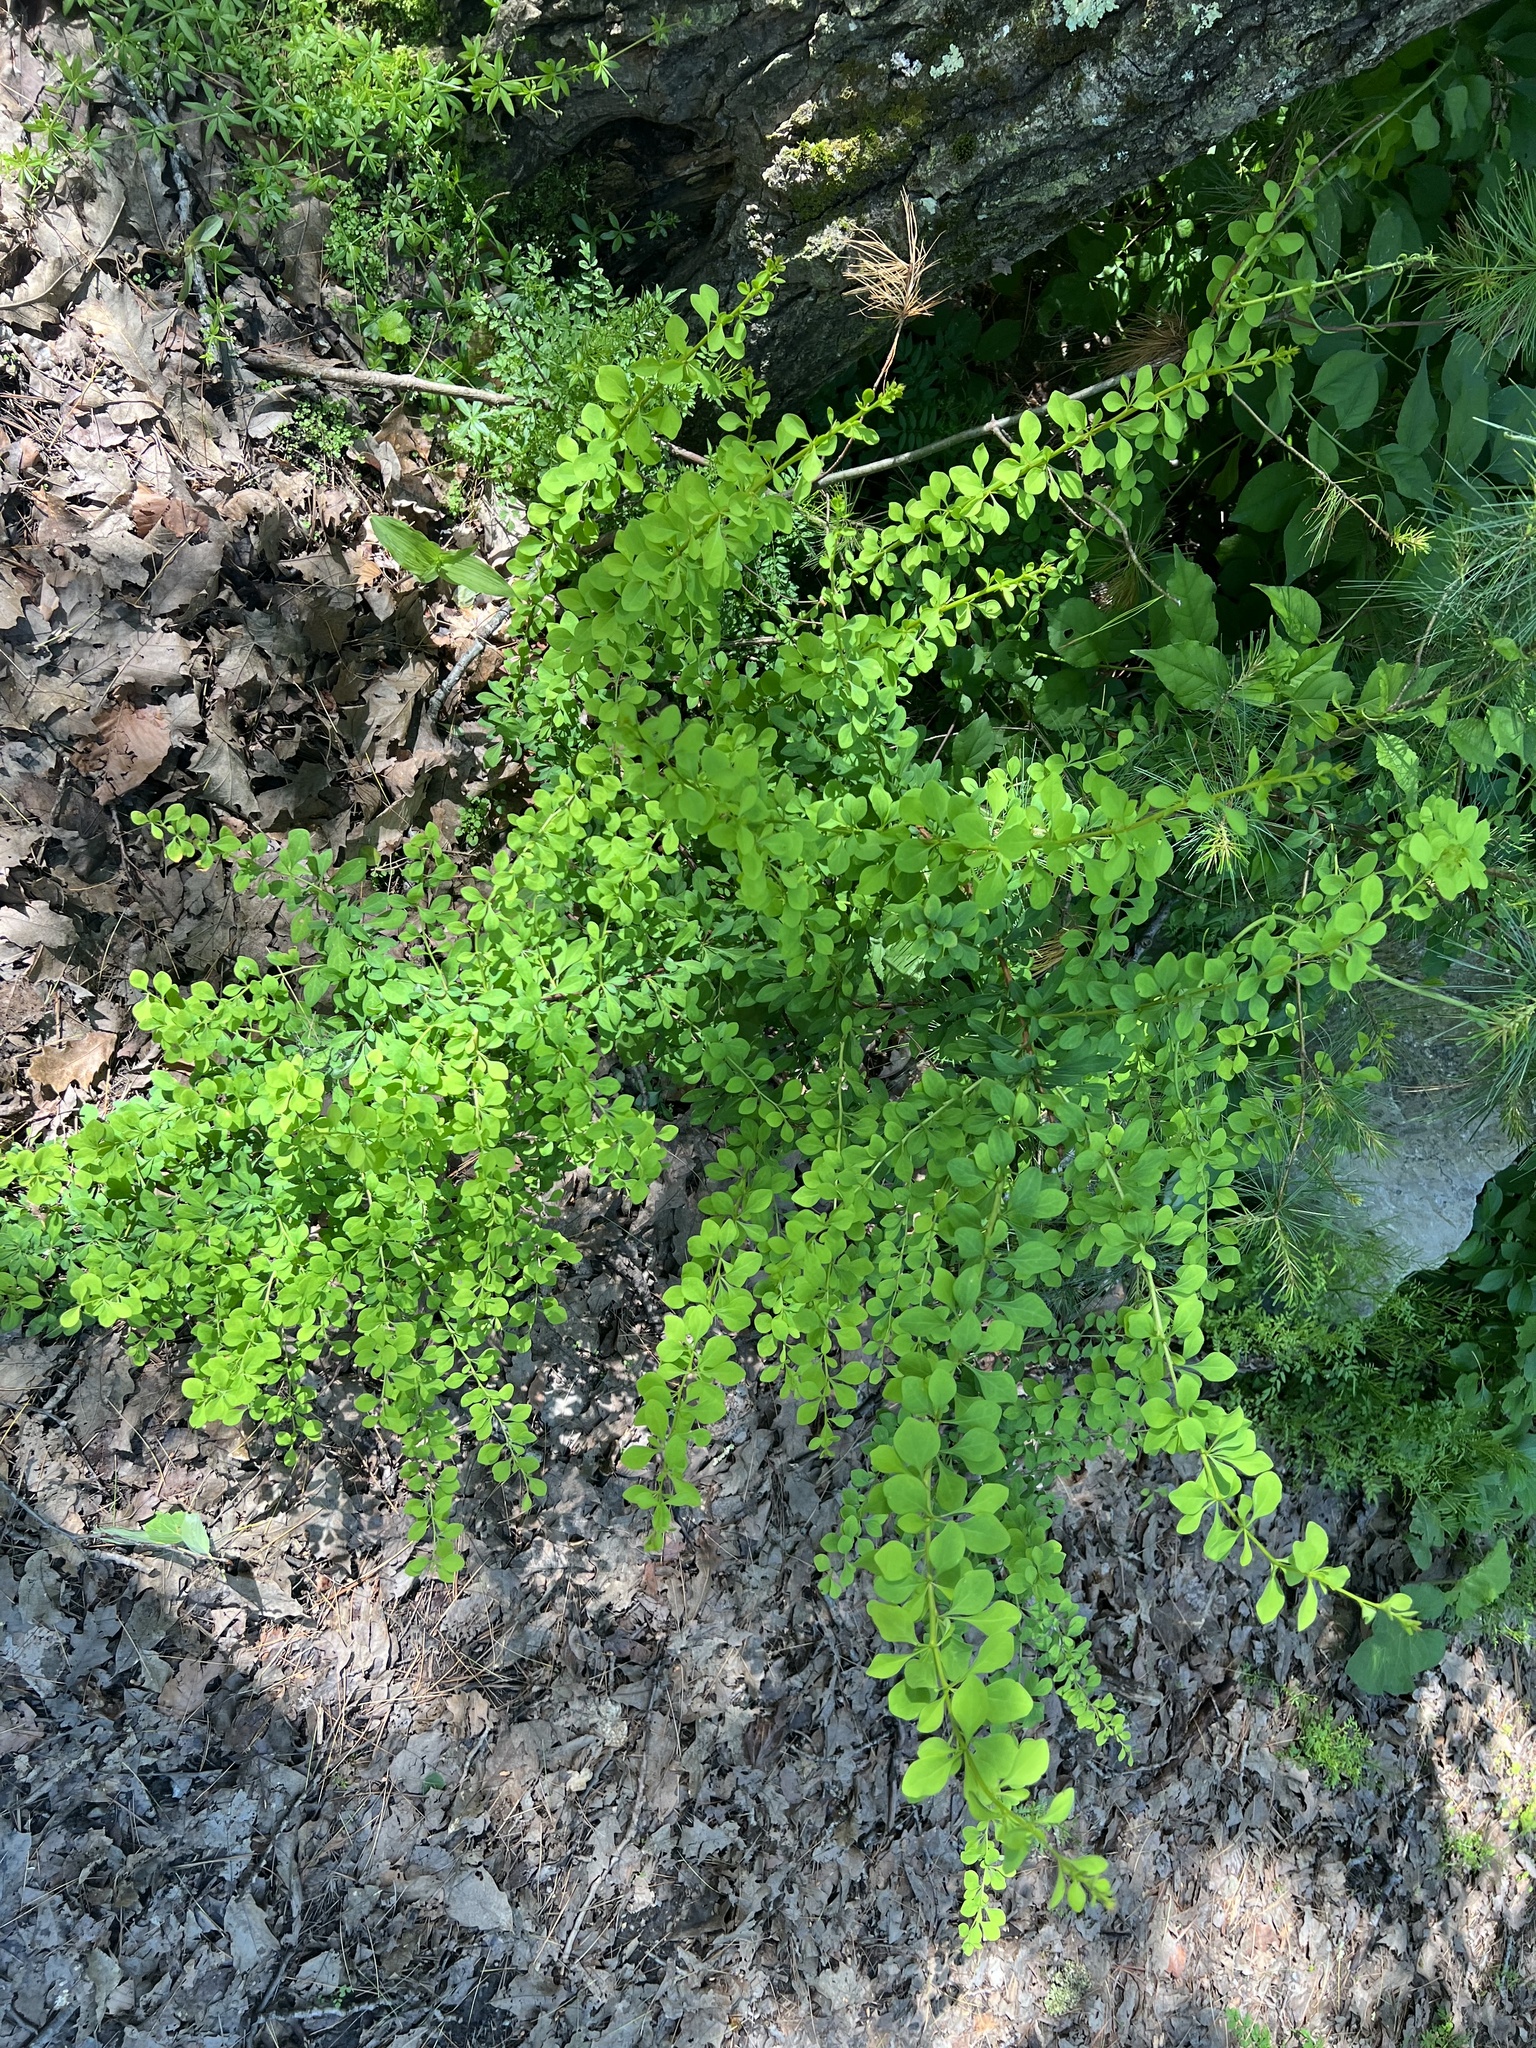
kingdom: Plantae
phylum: Tracheophyta
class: Magnoliopsida
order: Ranunculales
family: Berberidaceae
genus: Berberis
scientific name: Berberis thunbergii
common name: Japanese barberry
